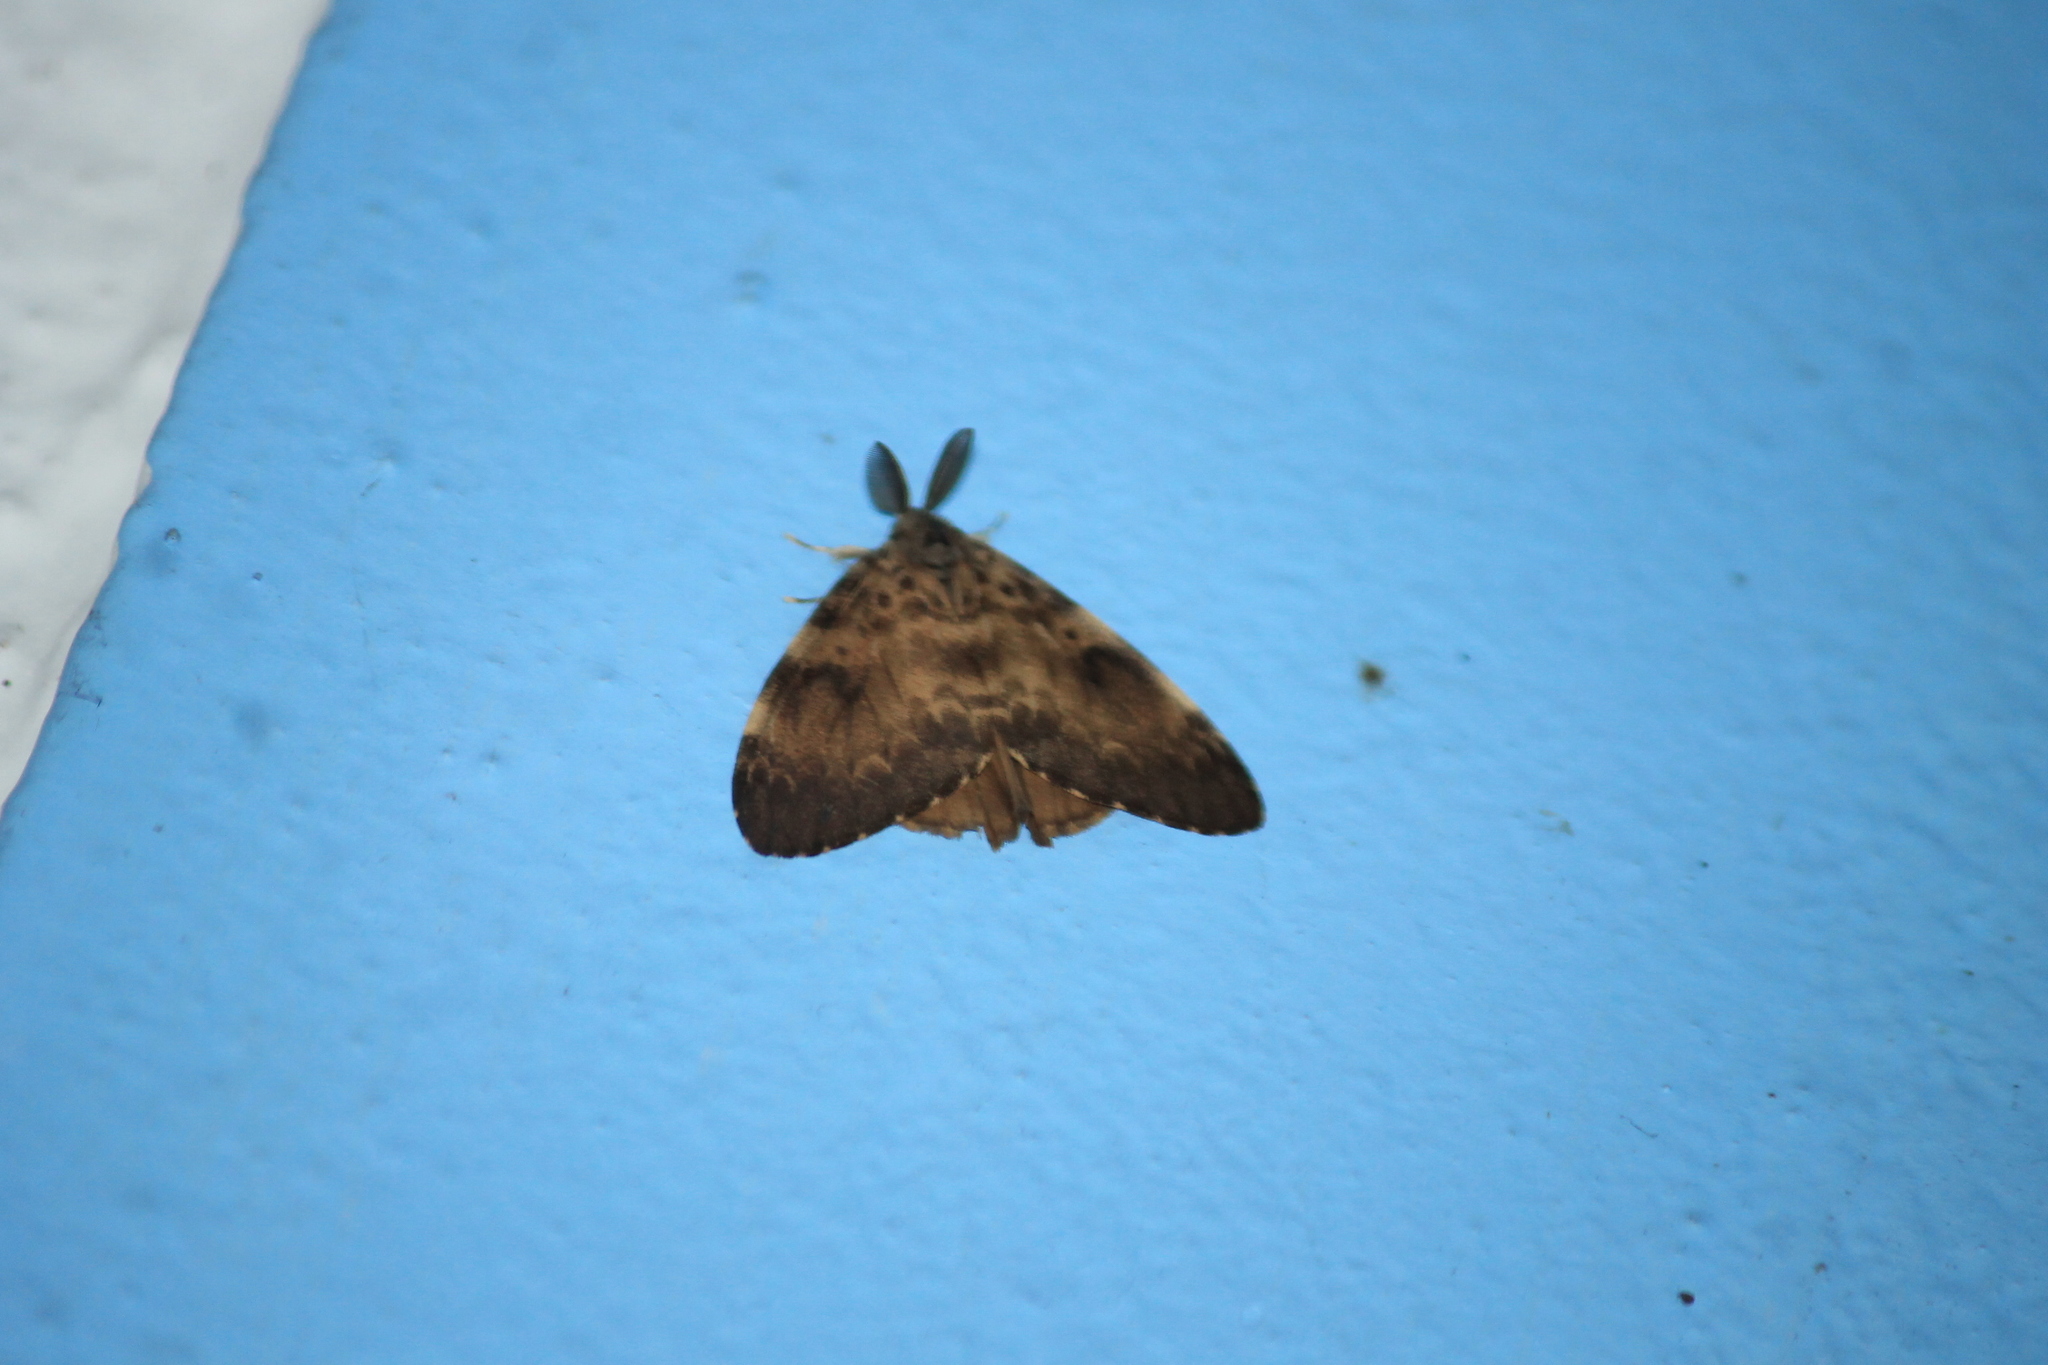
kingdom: Animalia
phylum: Arthropoda
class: Insecta
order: Lepidoptera
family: Erebidae
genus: Lymantria
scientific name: Lymantria ampla
